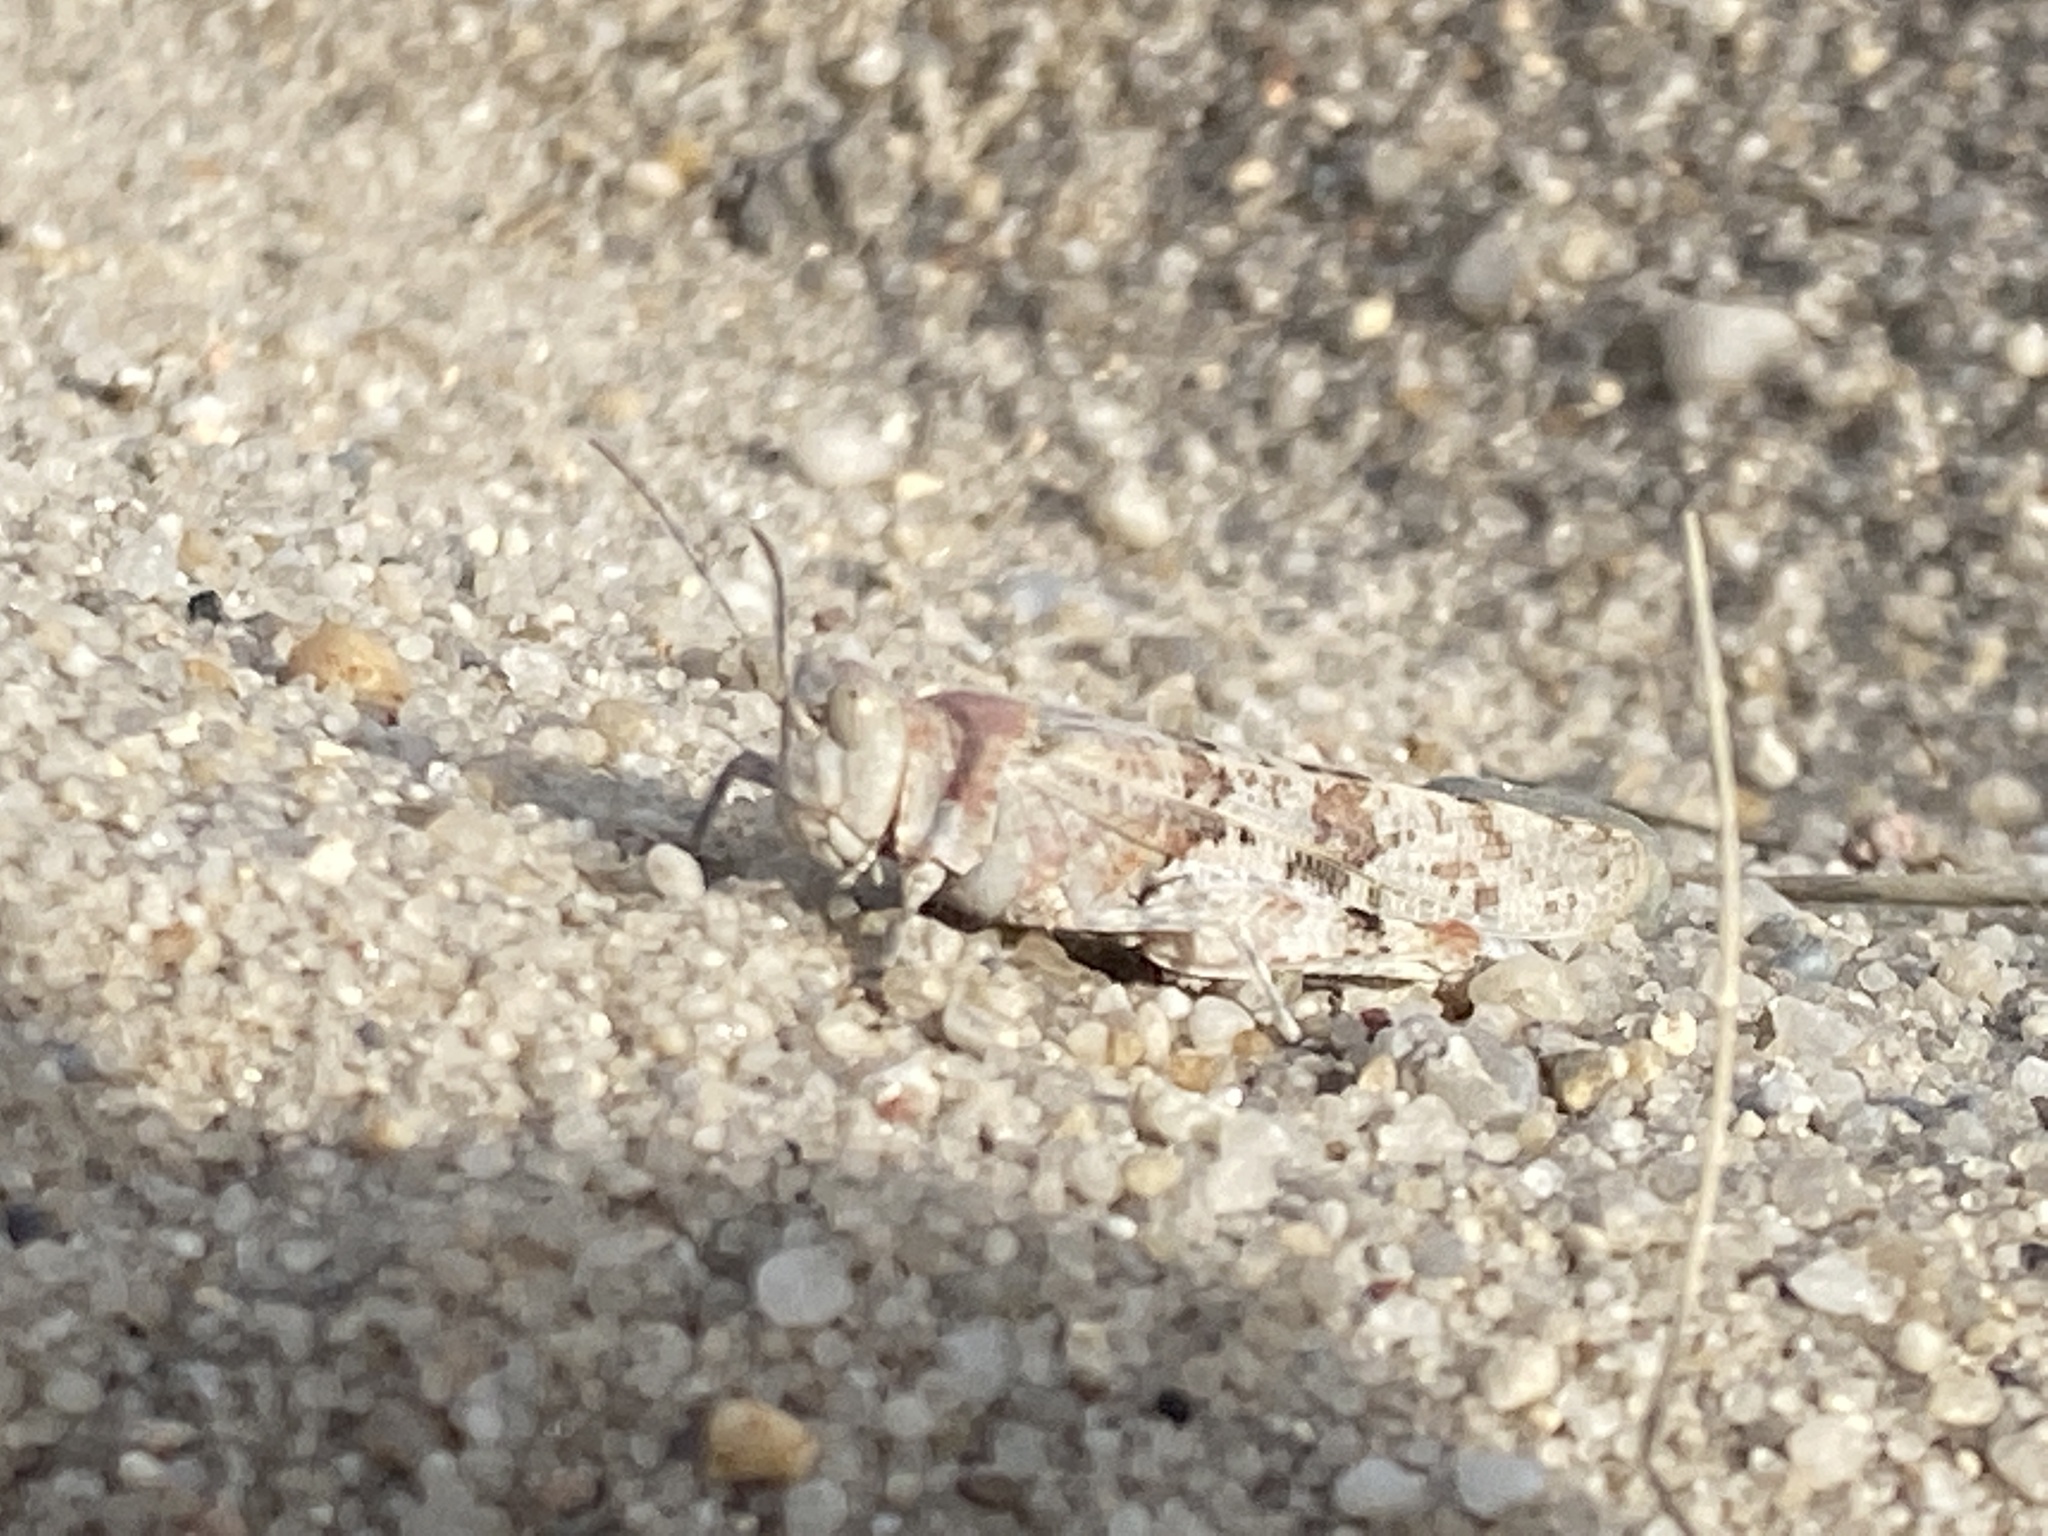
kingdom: Animalia
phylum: Arthropoda
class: Insecta
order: Orthoptera
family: Acrididae
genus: Sphingonotus
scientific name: Sphingonotus caerulans
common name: Blue-winged locust
